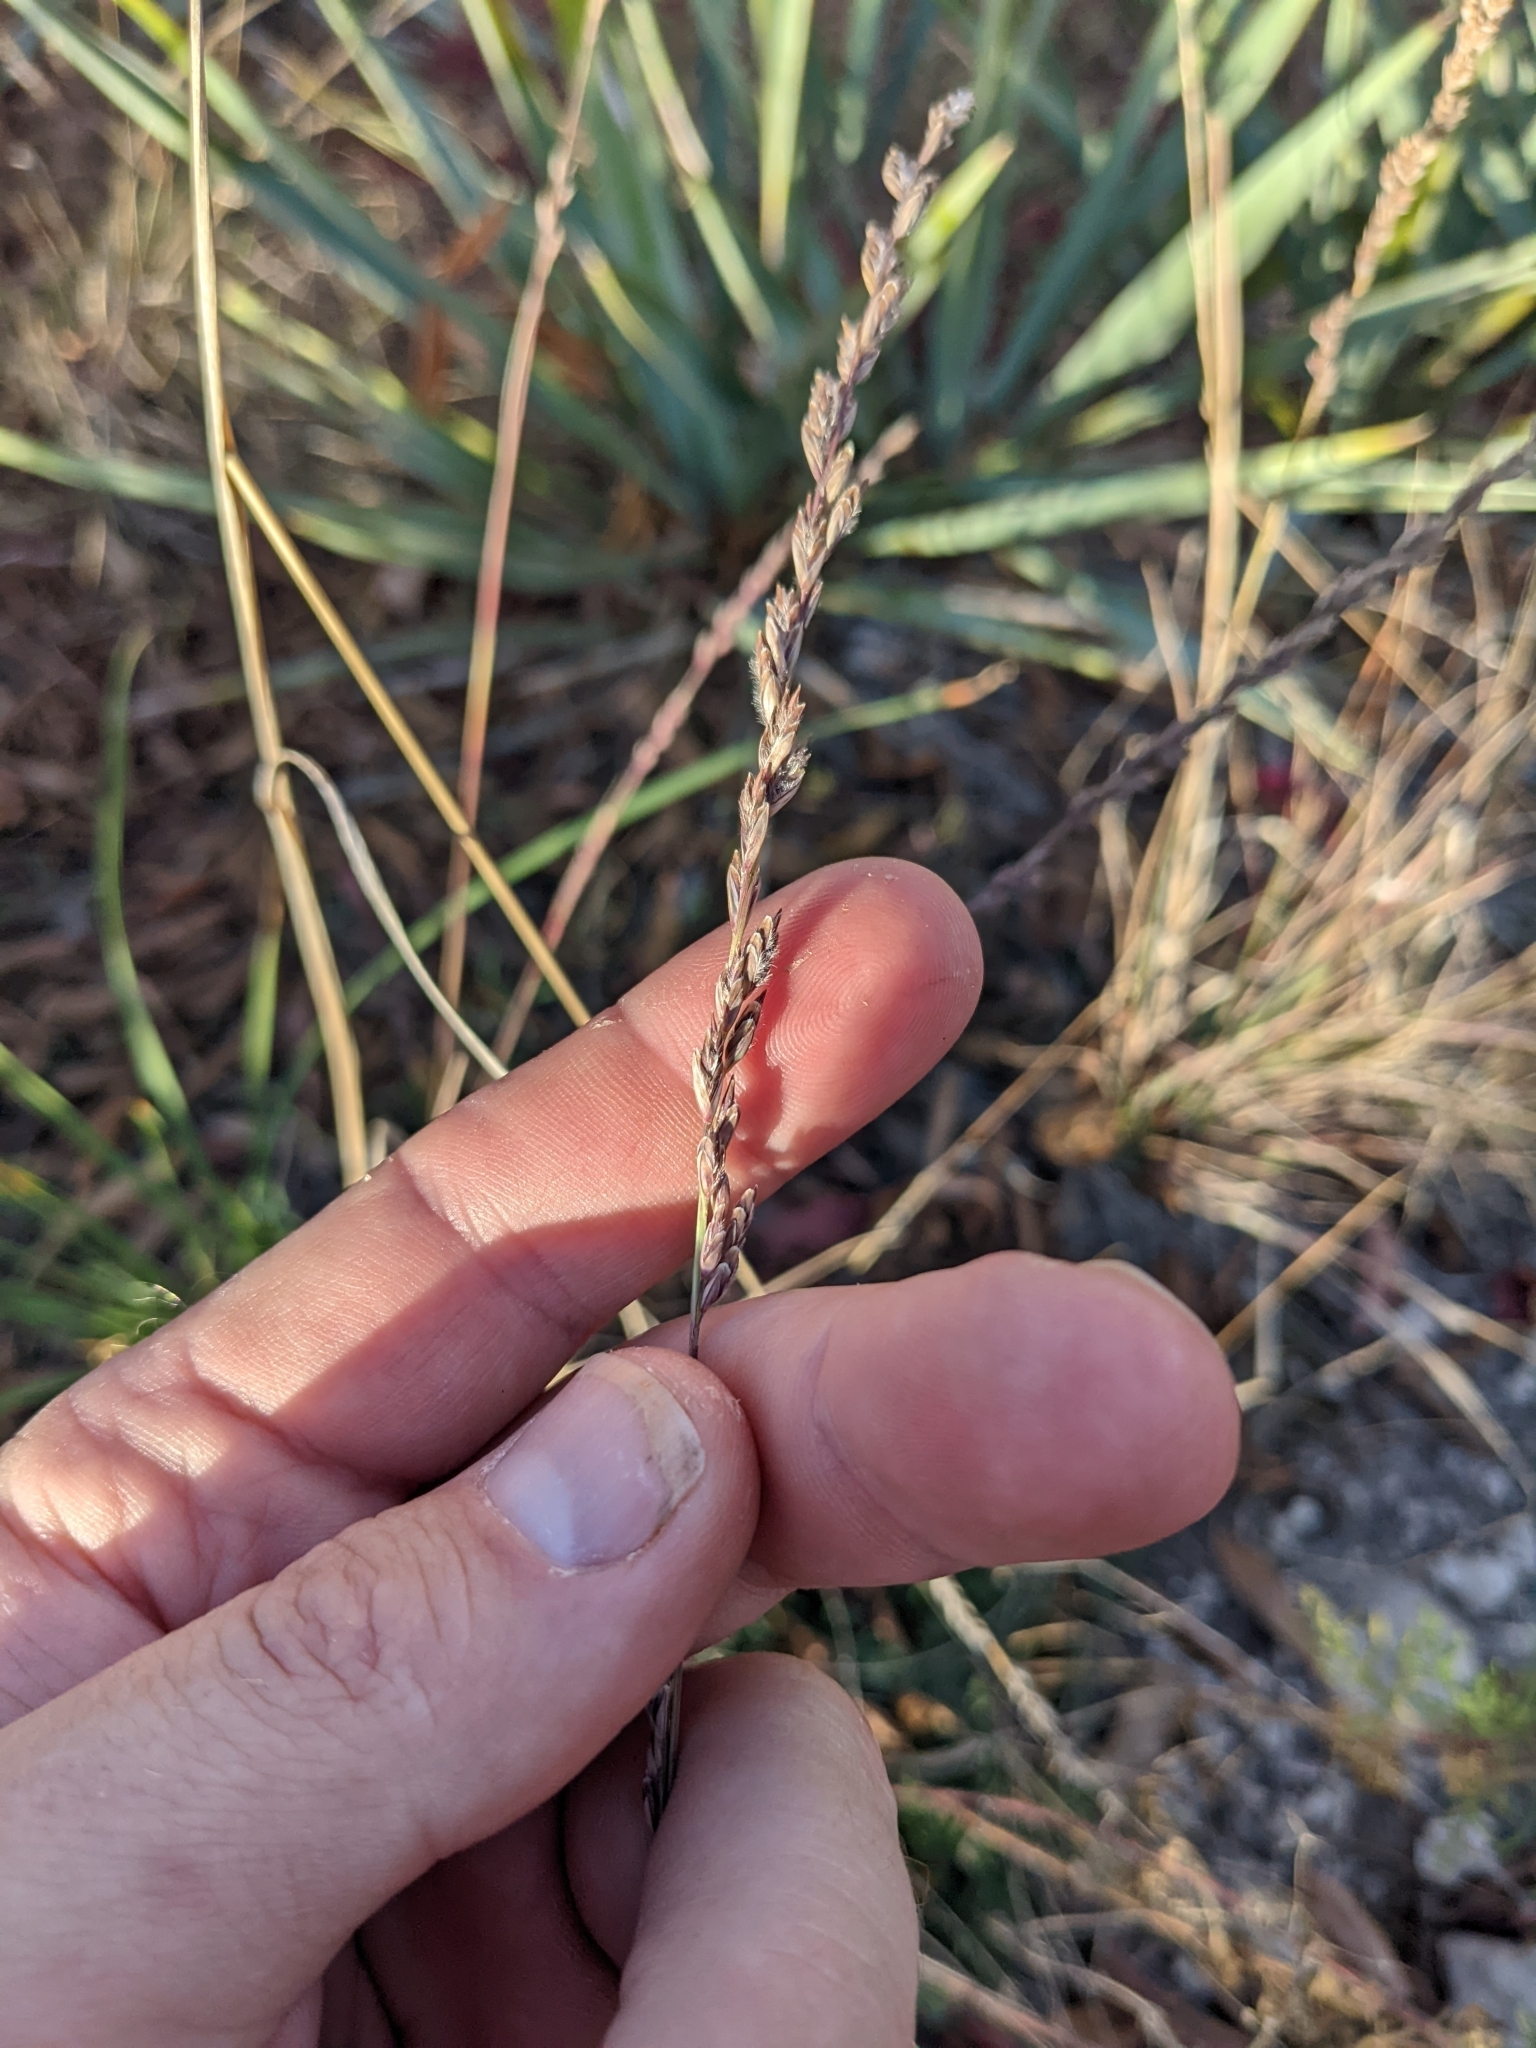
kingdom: Plantae
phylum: Tracheophyta
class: Liliopsida
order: Poales
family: Poaceae
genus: Tridentopsis
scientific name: Tridentopsis mutica
